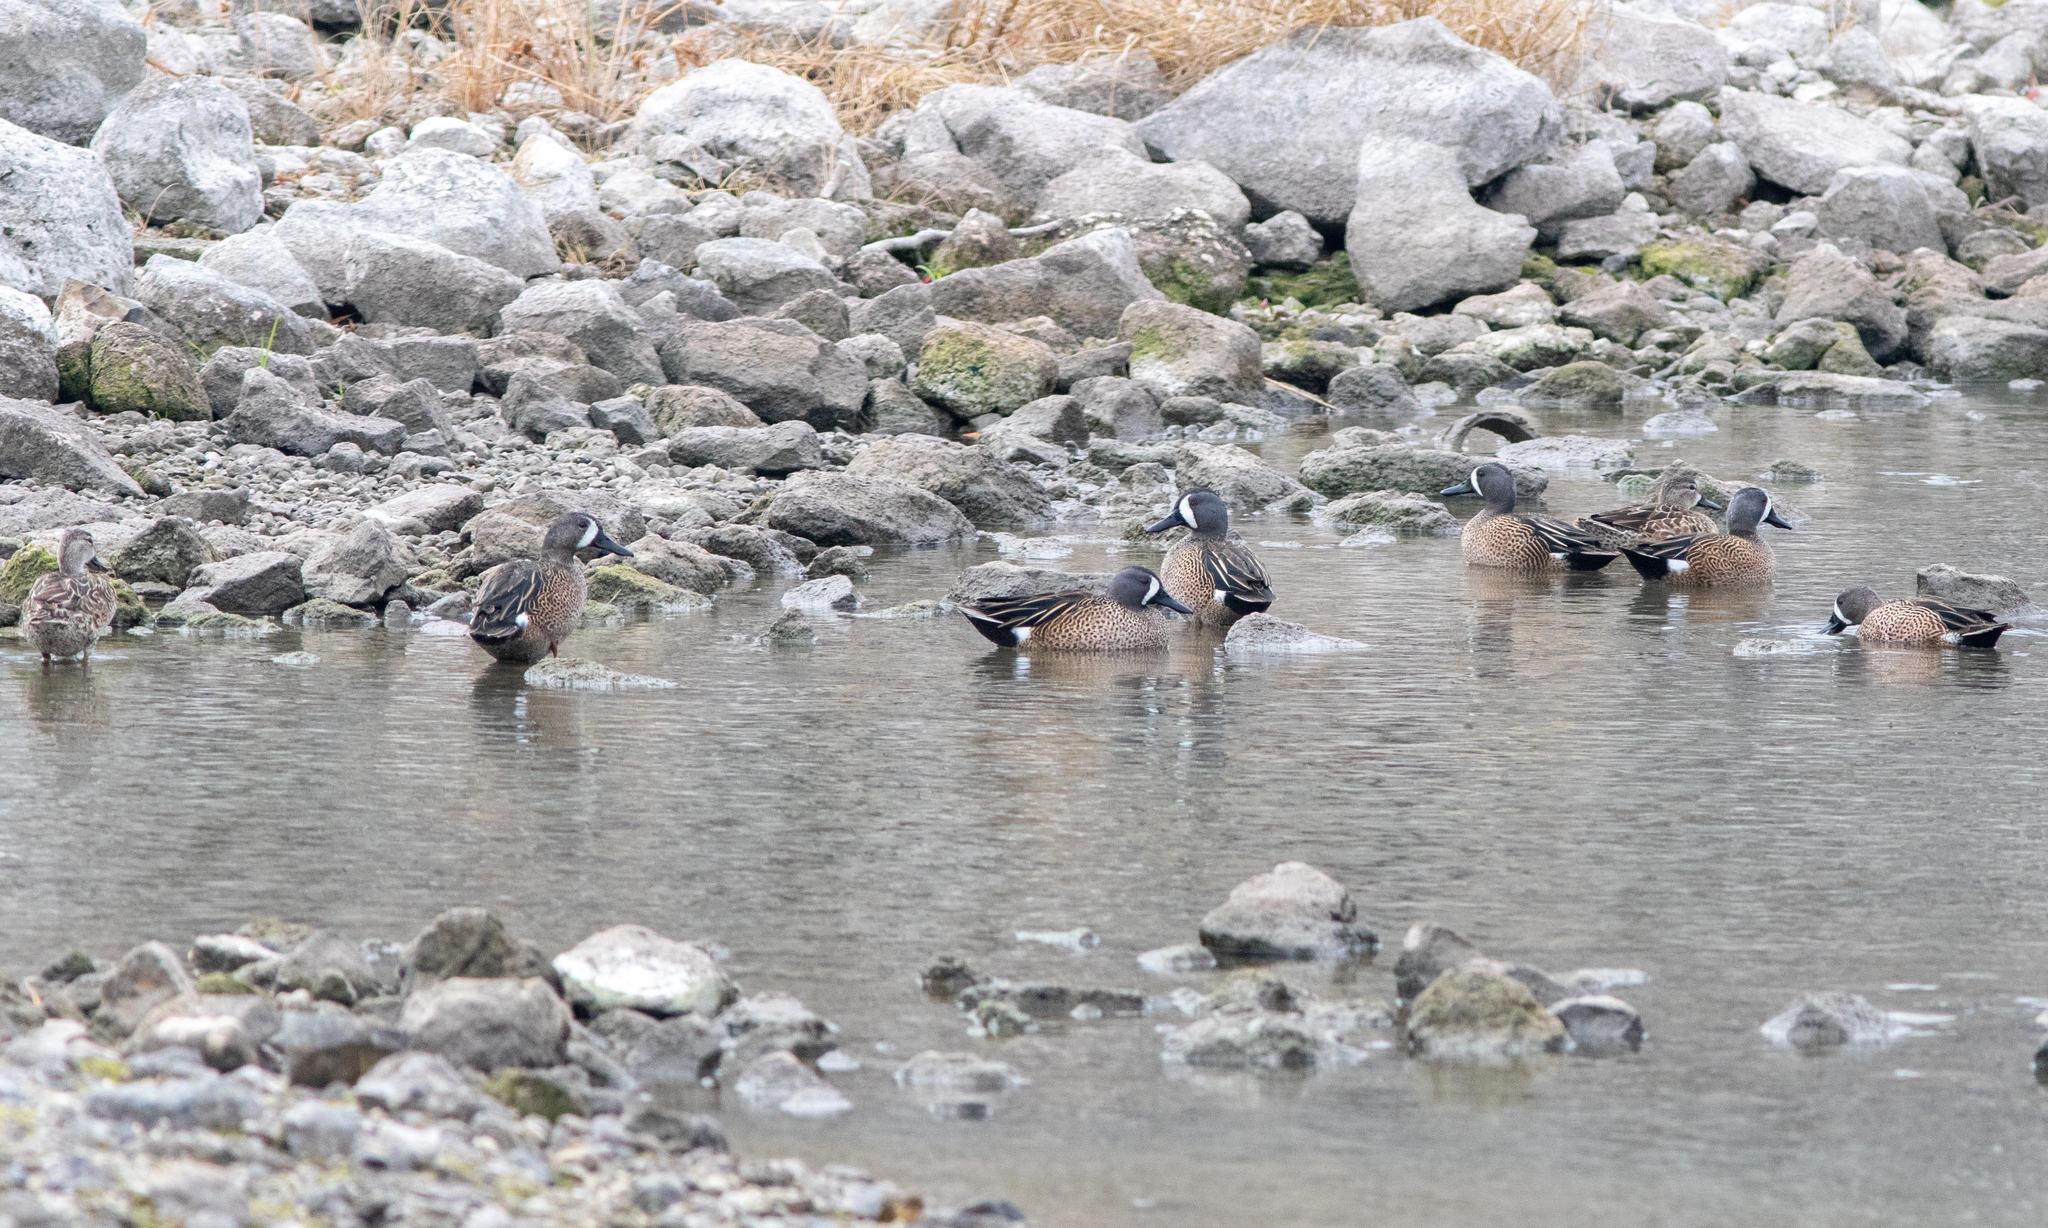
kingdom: Animalia
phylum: Chordata
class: Aves
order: Anseriformes
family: Anatidae
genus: Spatula
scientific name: Spatula discors
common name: Blue-winged teal
